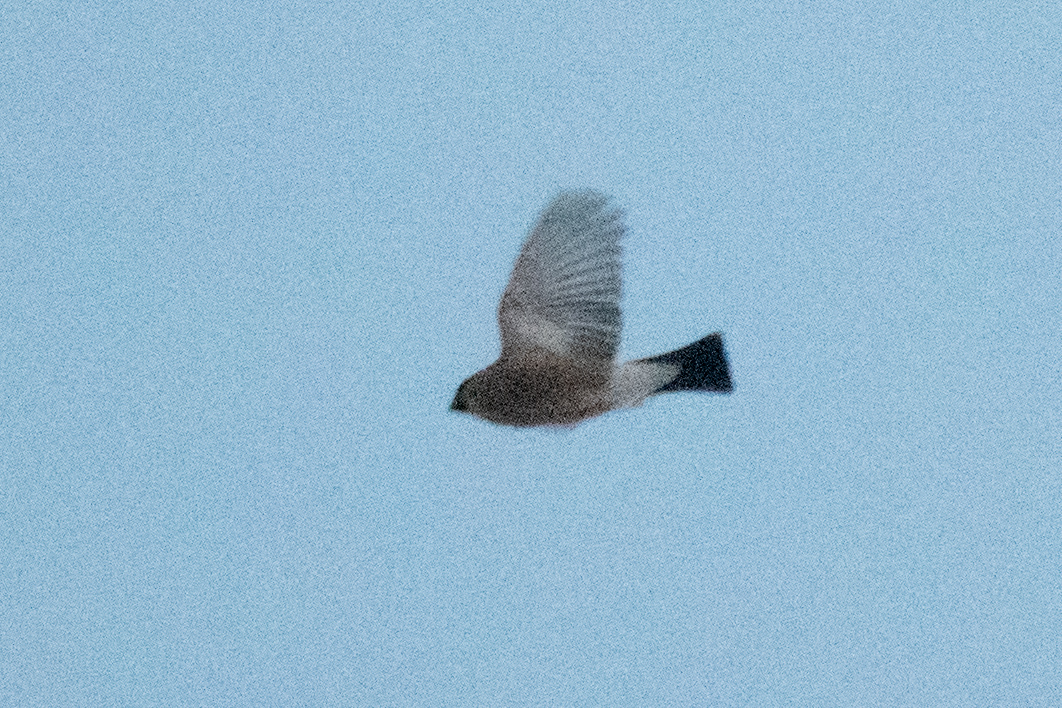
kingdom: Animalia
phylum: Chordata
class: Aves
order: Passeriformes
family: Fringillidae
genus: Pyrrhula
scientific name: Pyrrhula pyrrhula
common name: Eurasian bullfinch
